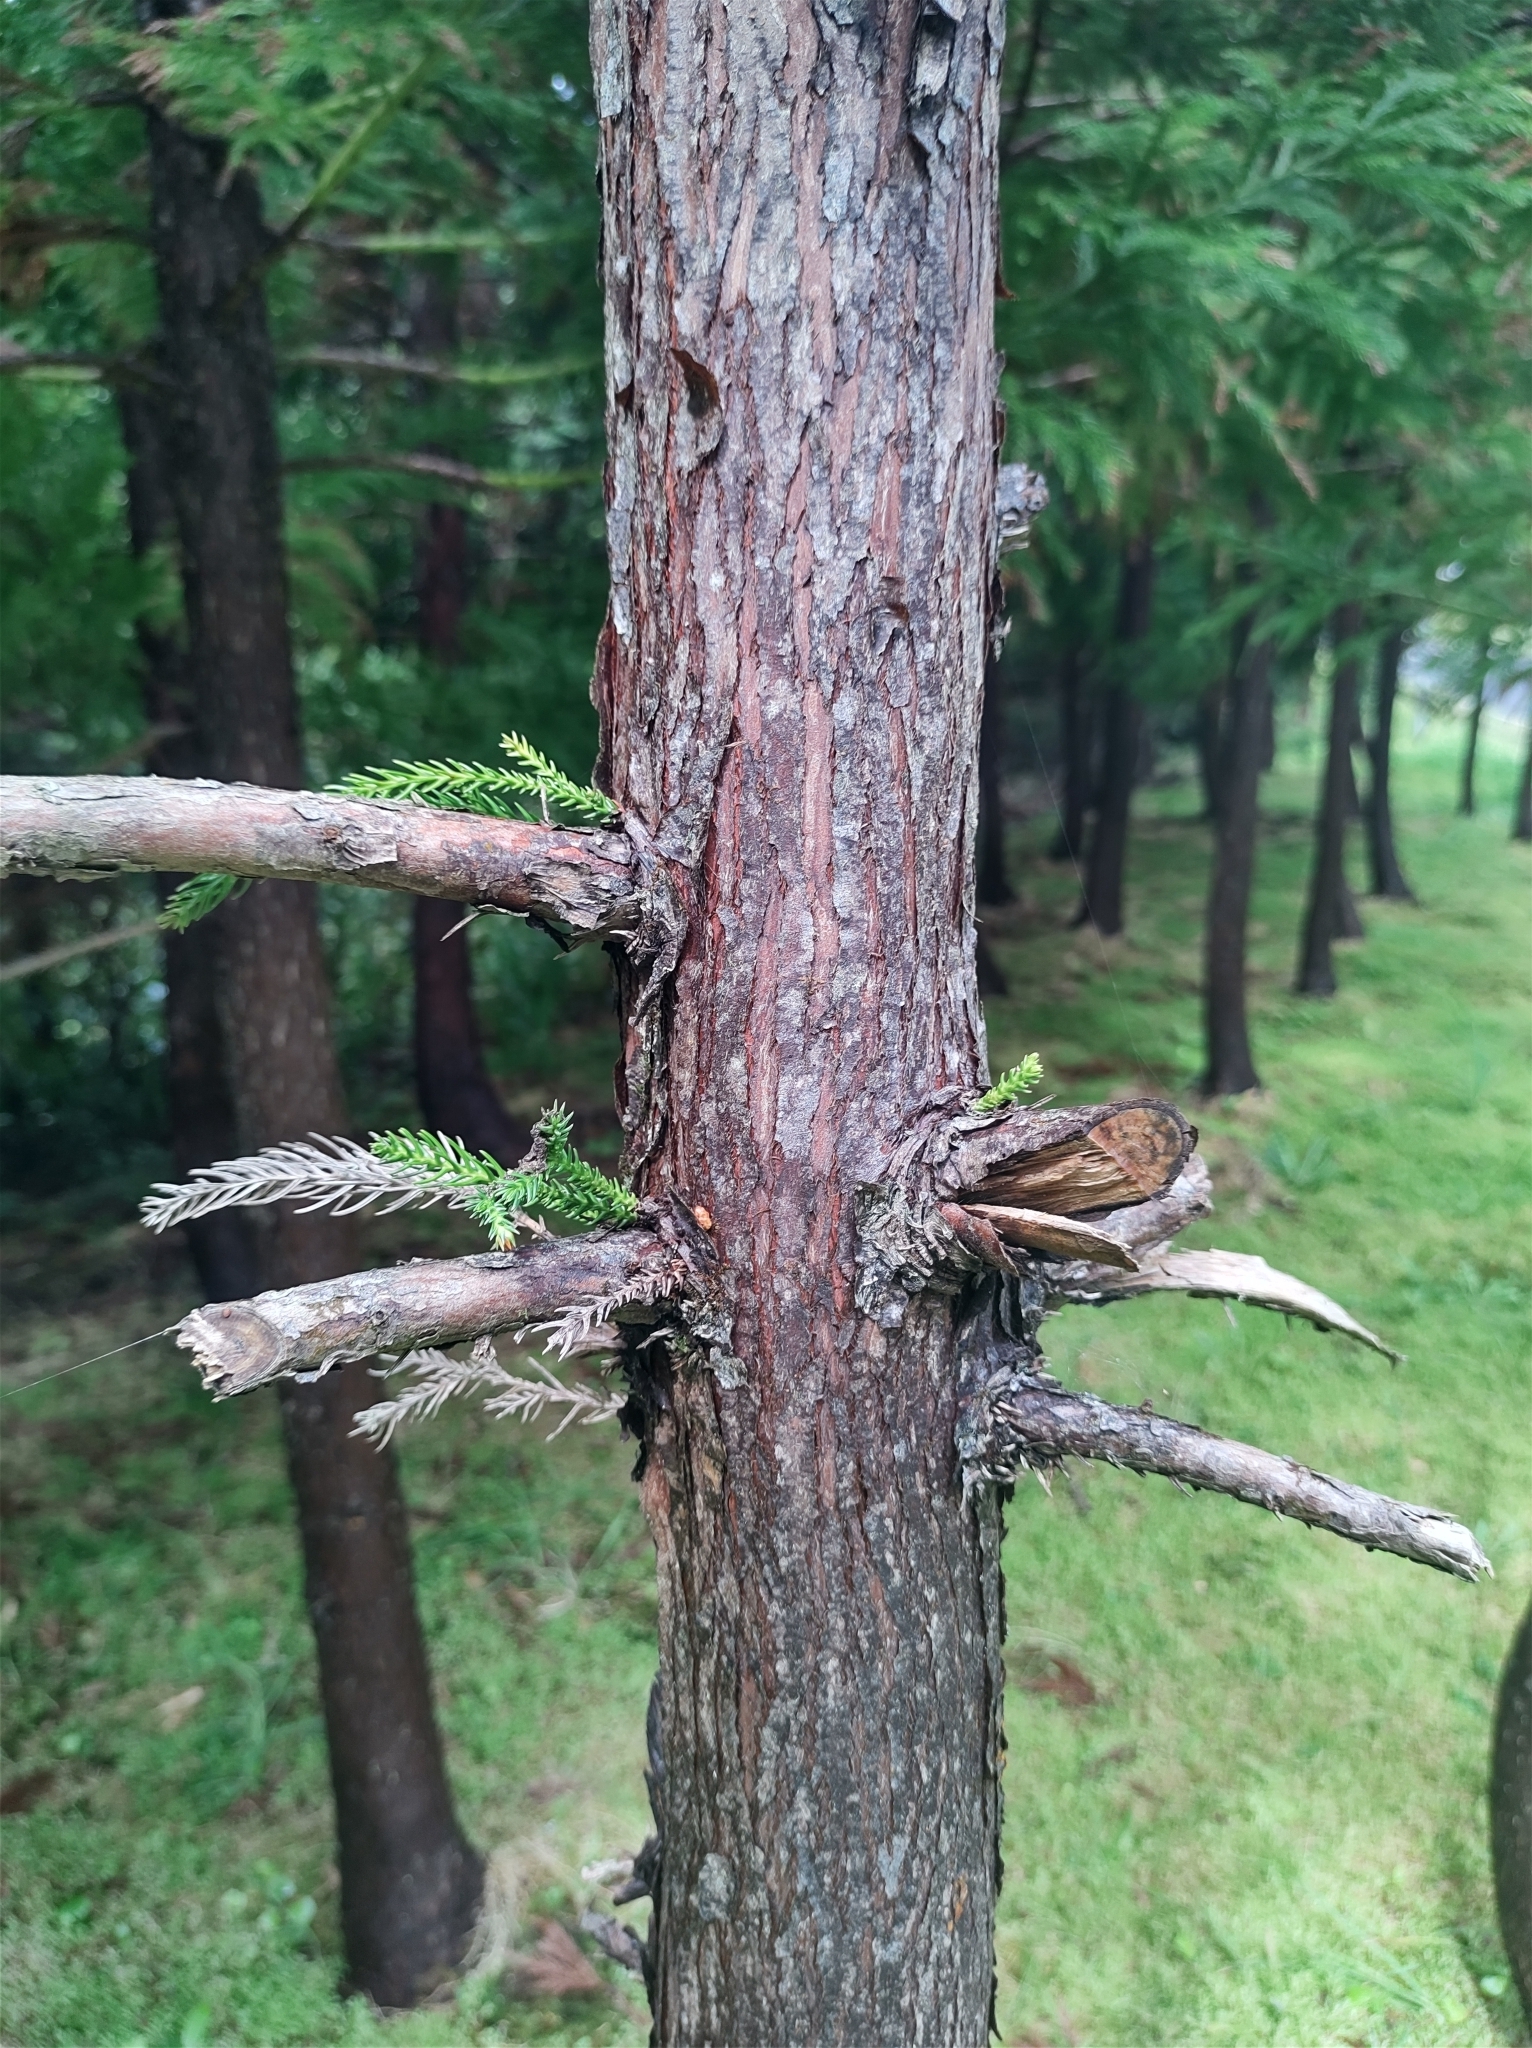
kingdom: Plantae
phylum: Tracheophyta
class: Pinopsida
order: Pinales
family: Cupressaceae
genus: Cryptomeria
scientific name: Cryptomeria japonica
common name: Japanese cedar
